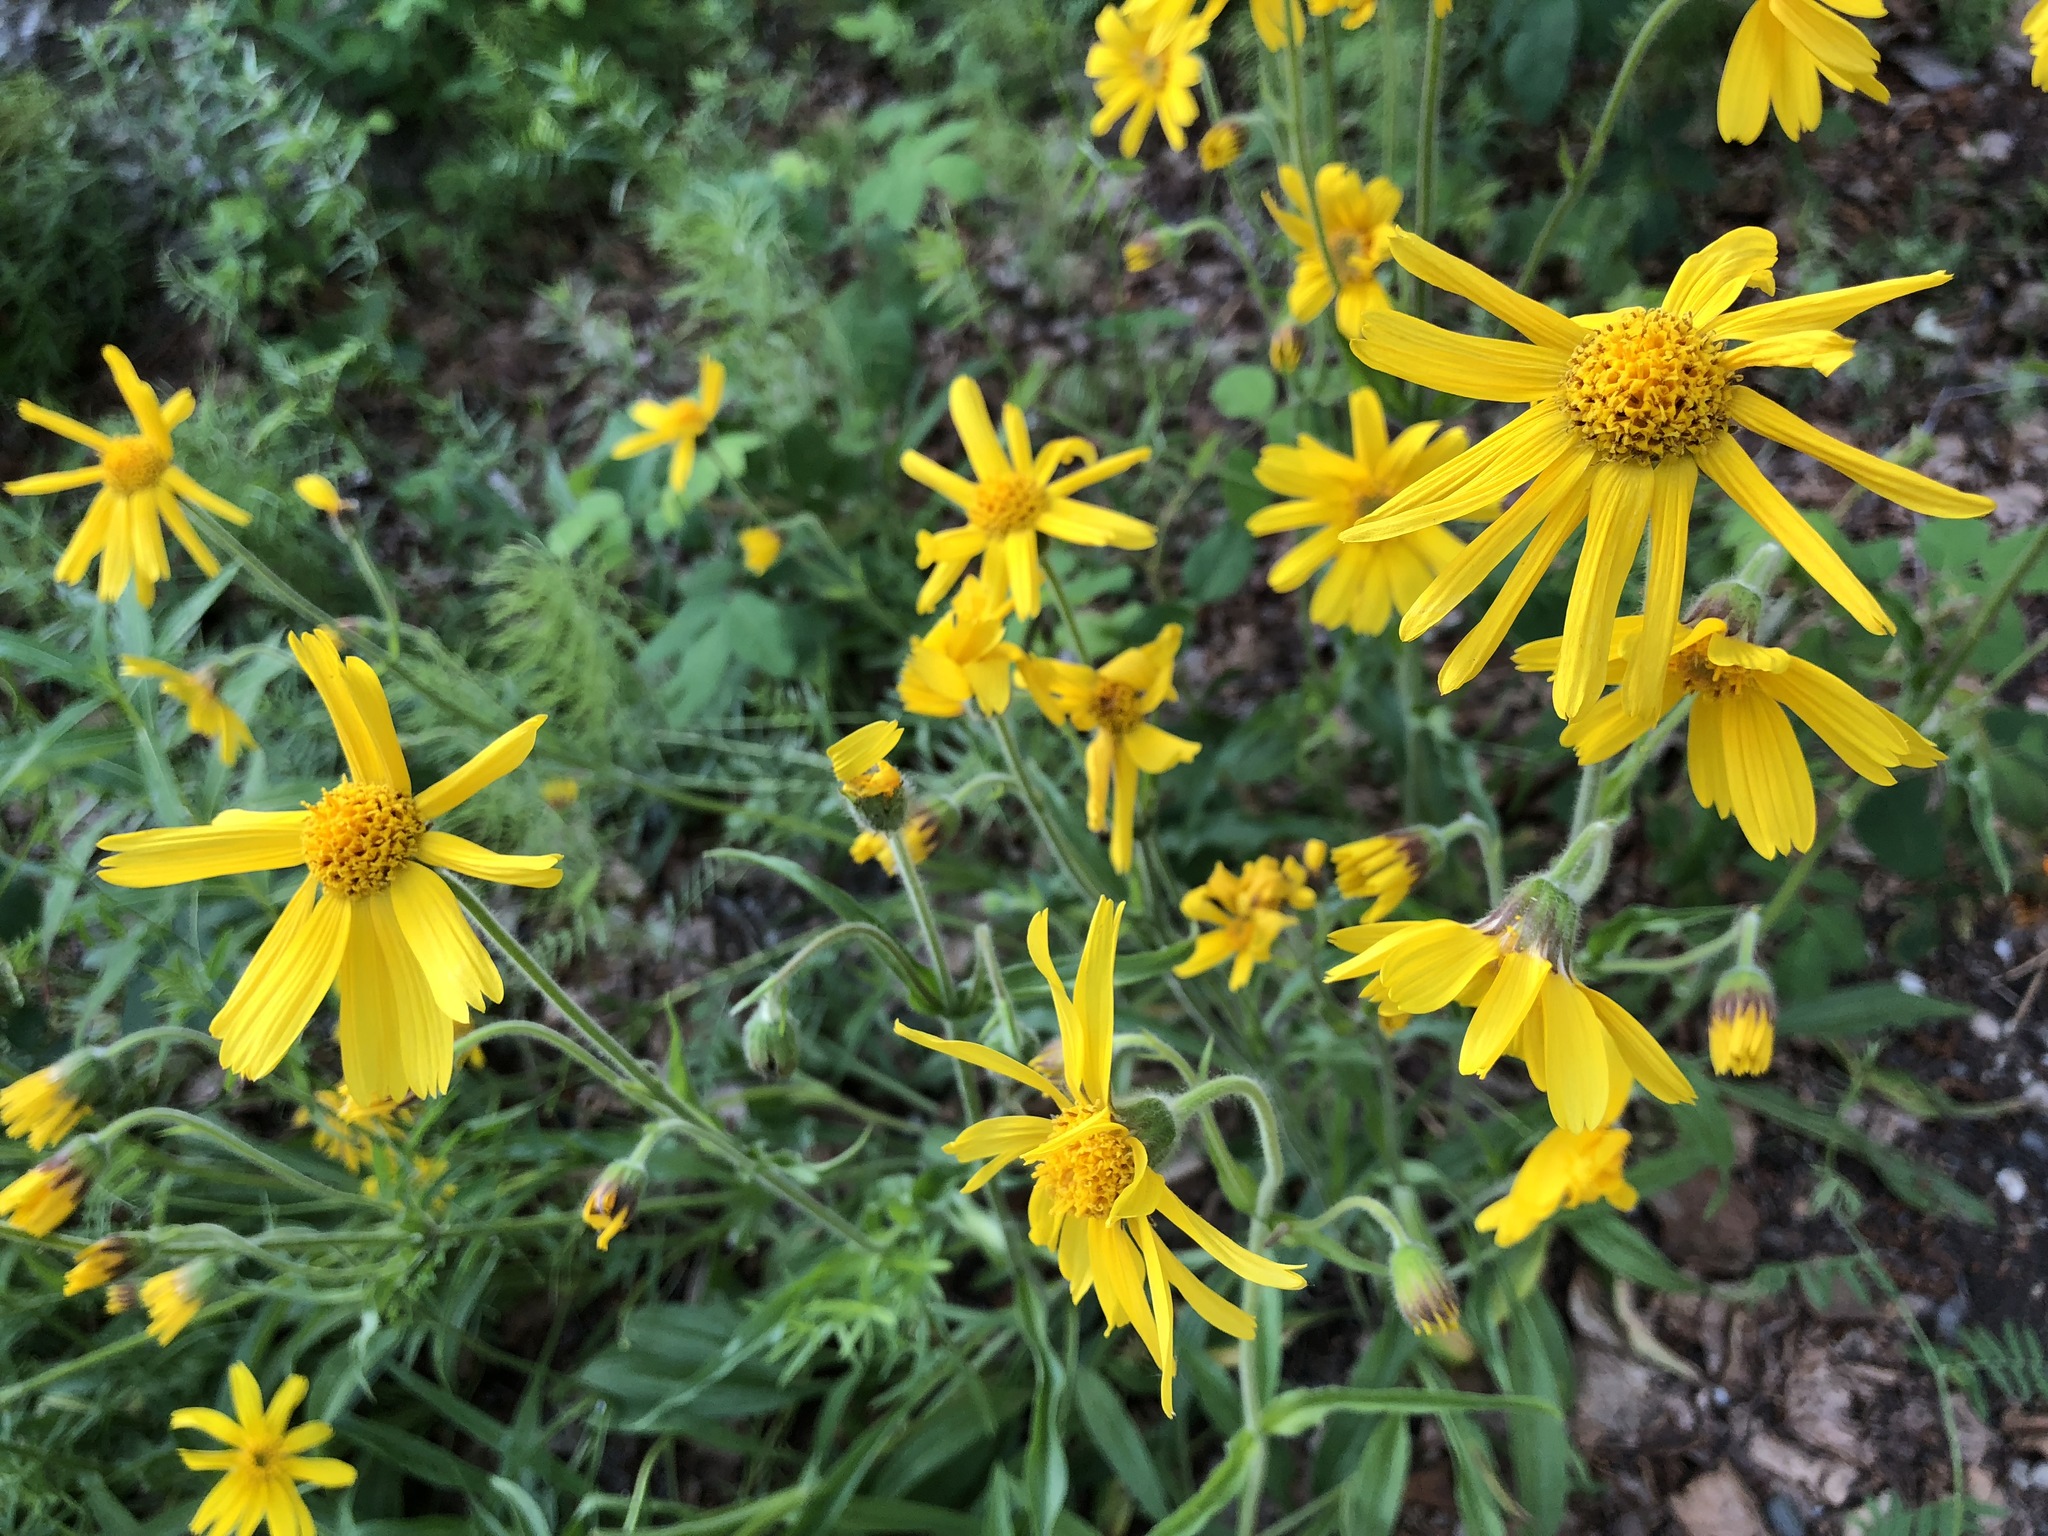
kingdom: Plantae
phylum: Tracheophyta
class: Magnoliopsida
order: Asterales
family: Asteraceae
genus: Arnica
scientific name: Arnica lonchophylla
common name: Northern arnica
